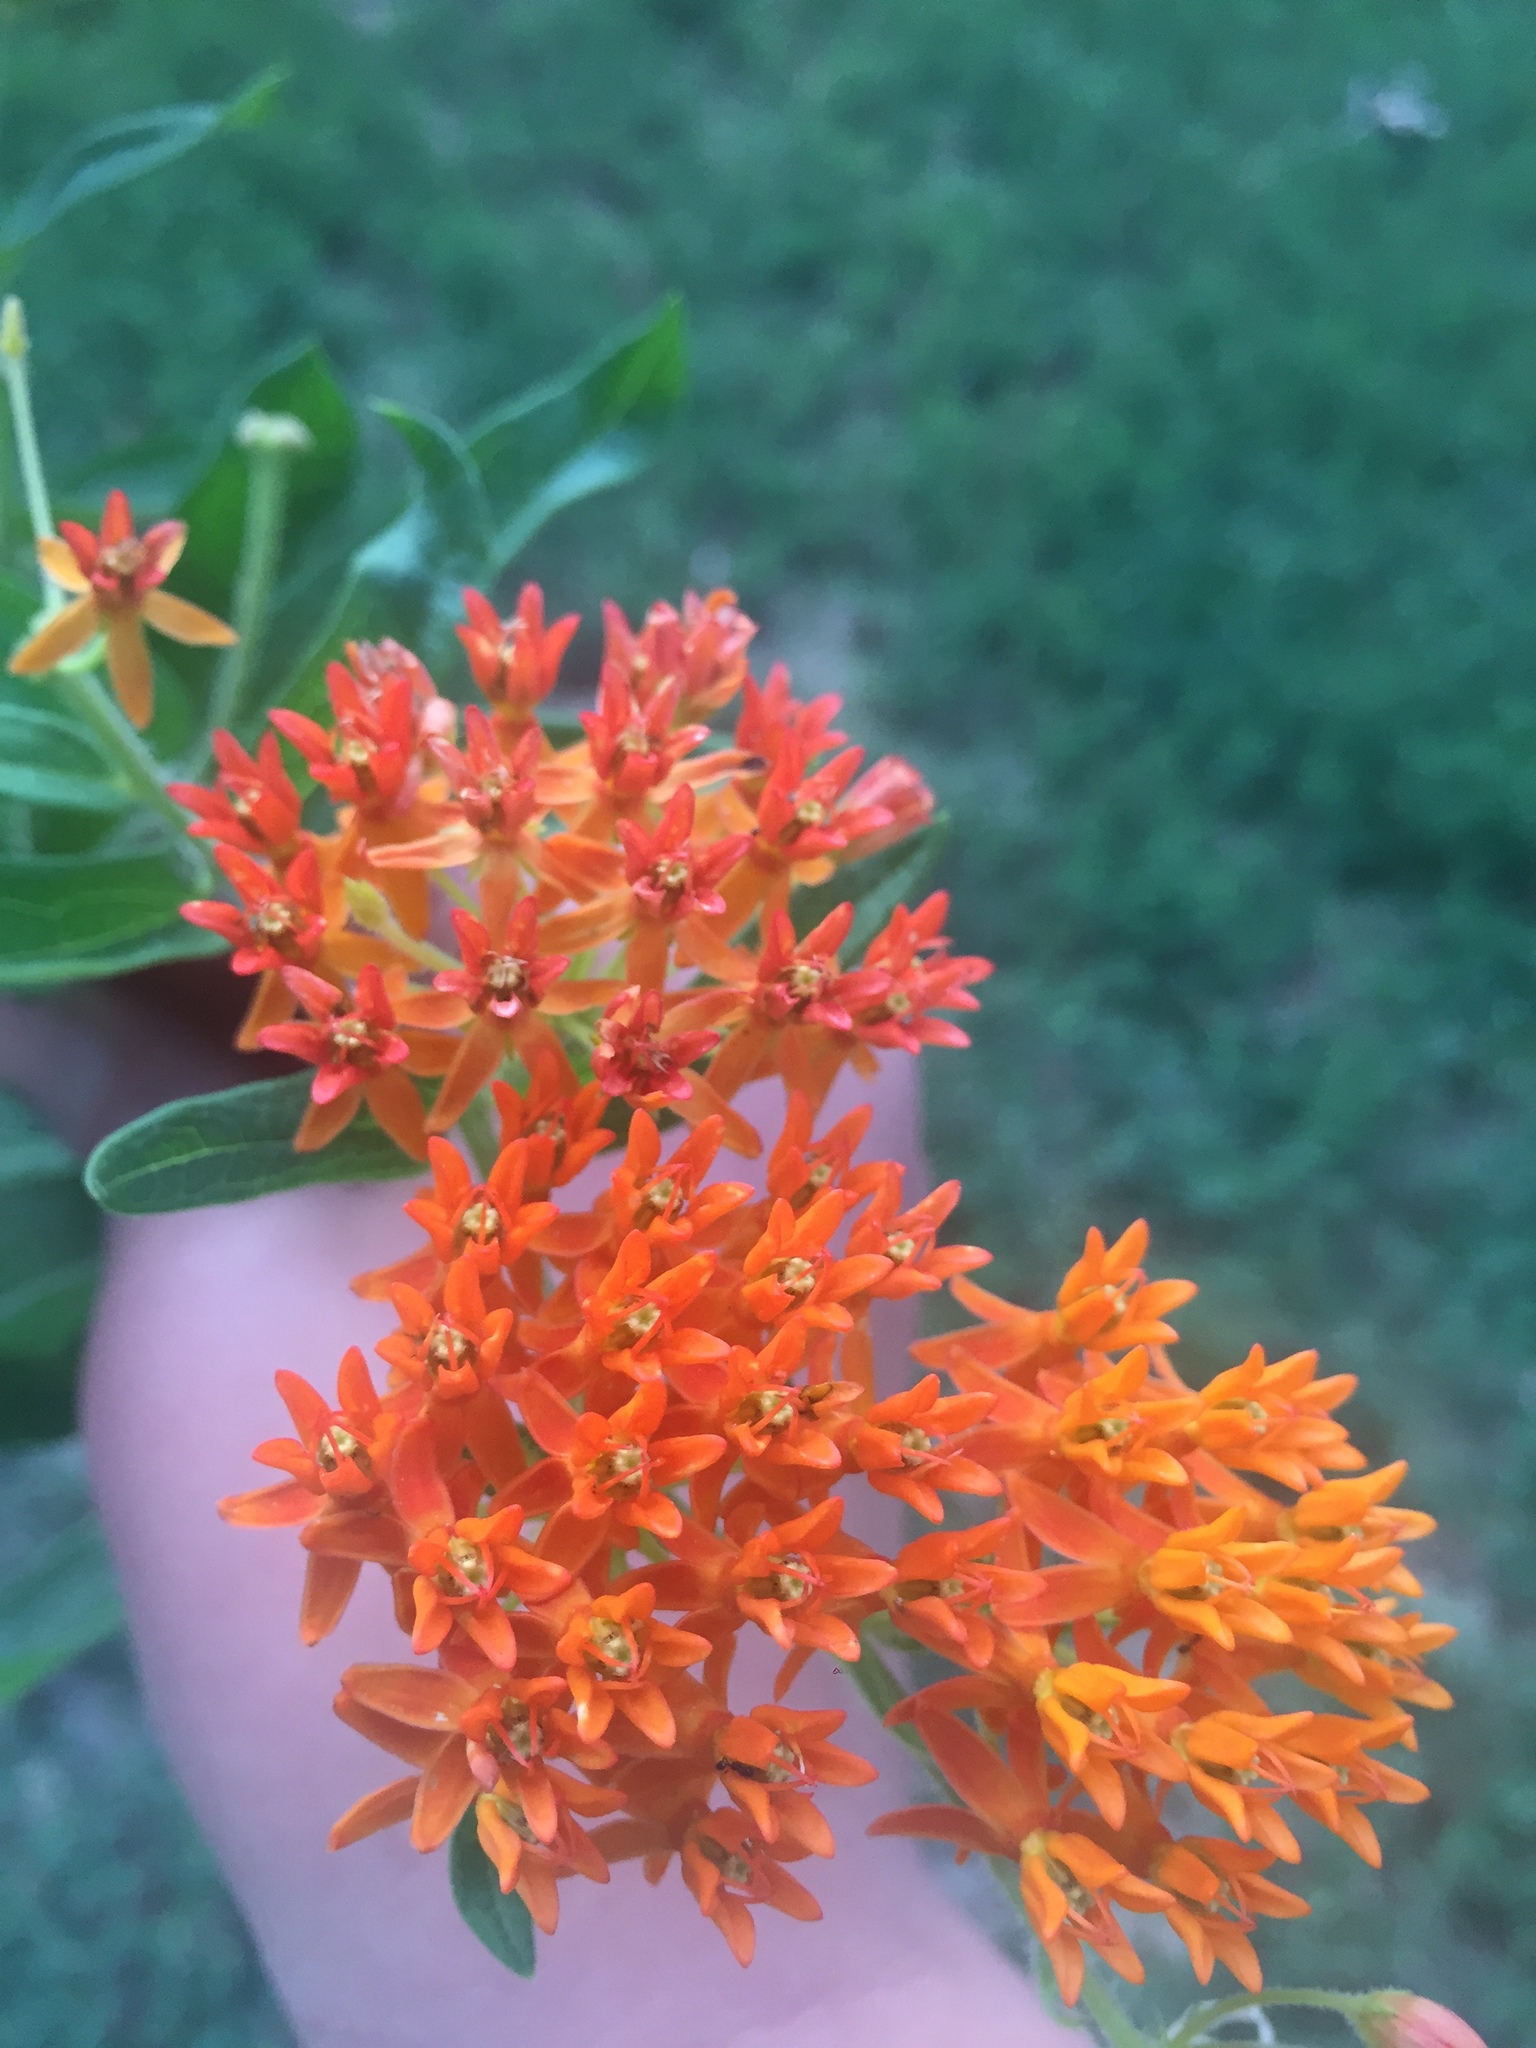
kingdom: Plantae
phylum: Tracheophyta
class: Magnoliopsida
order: Gentianales
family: Apocynaceae
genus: Asclepias
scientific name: Asclepias tuberosa
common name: Butterfly milkweed
